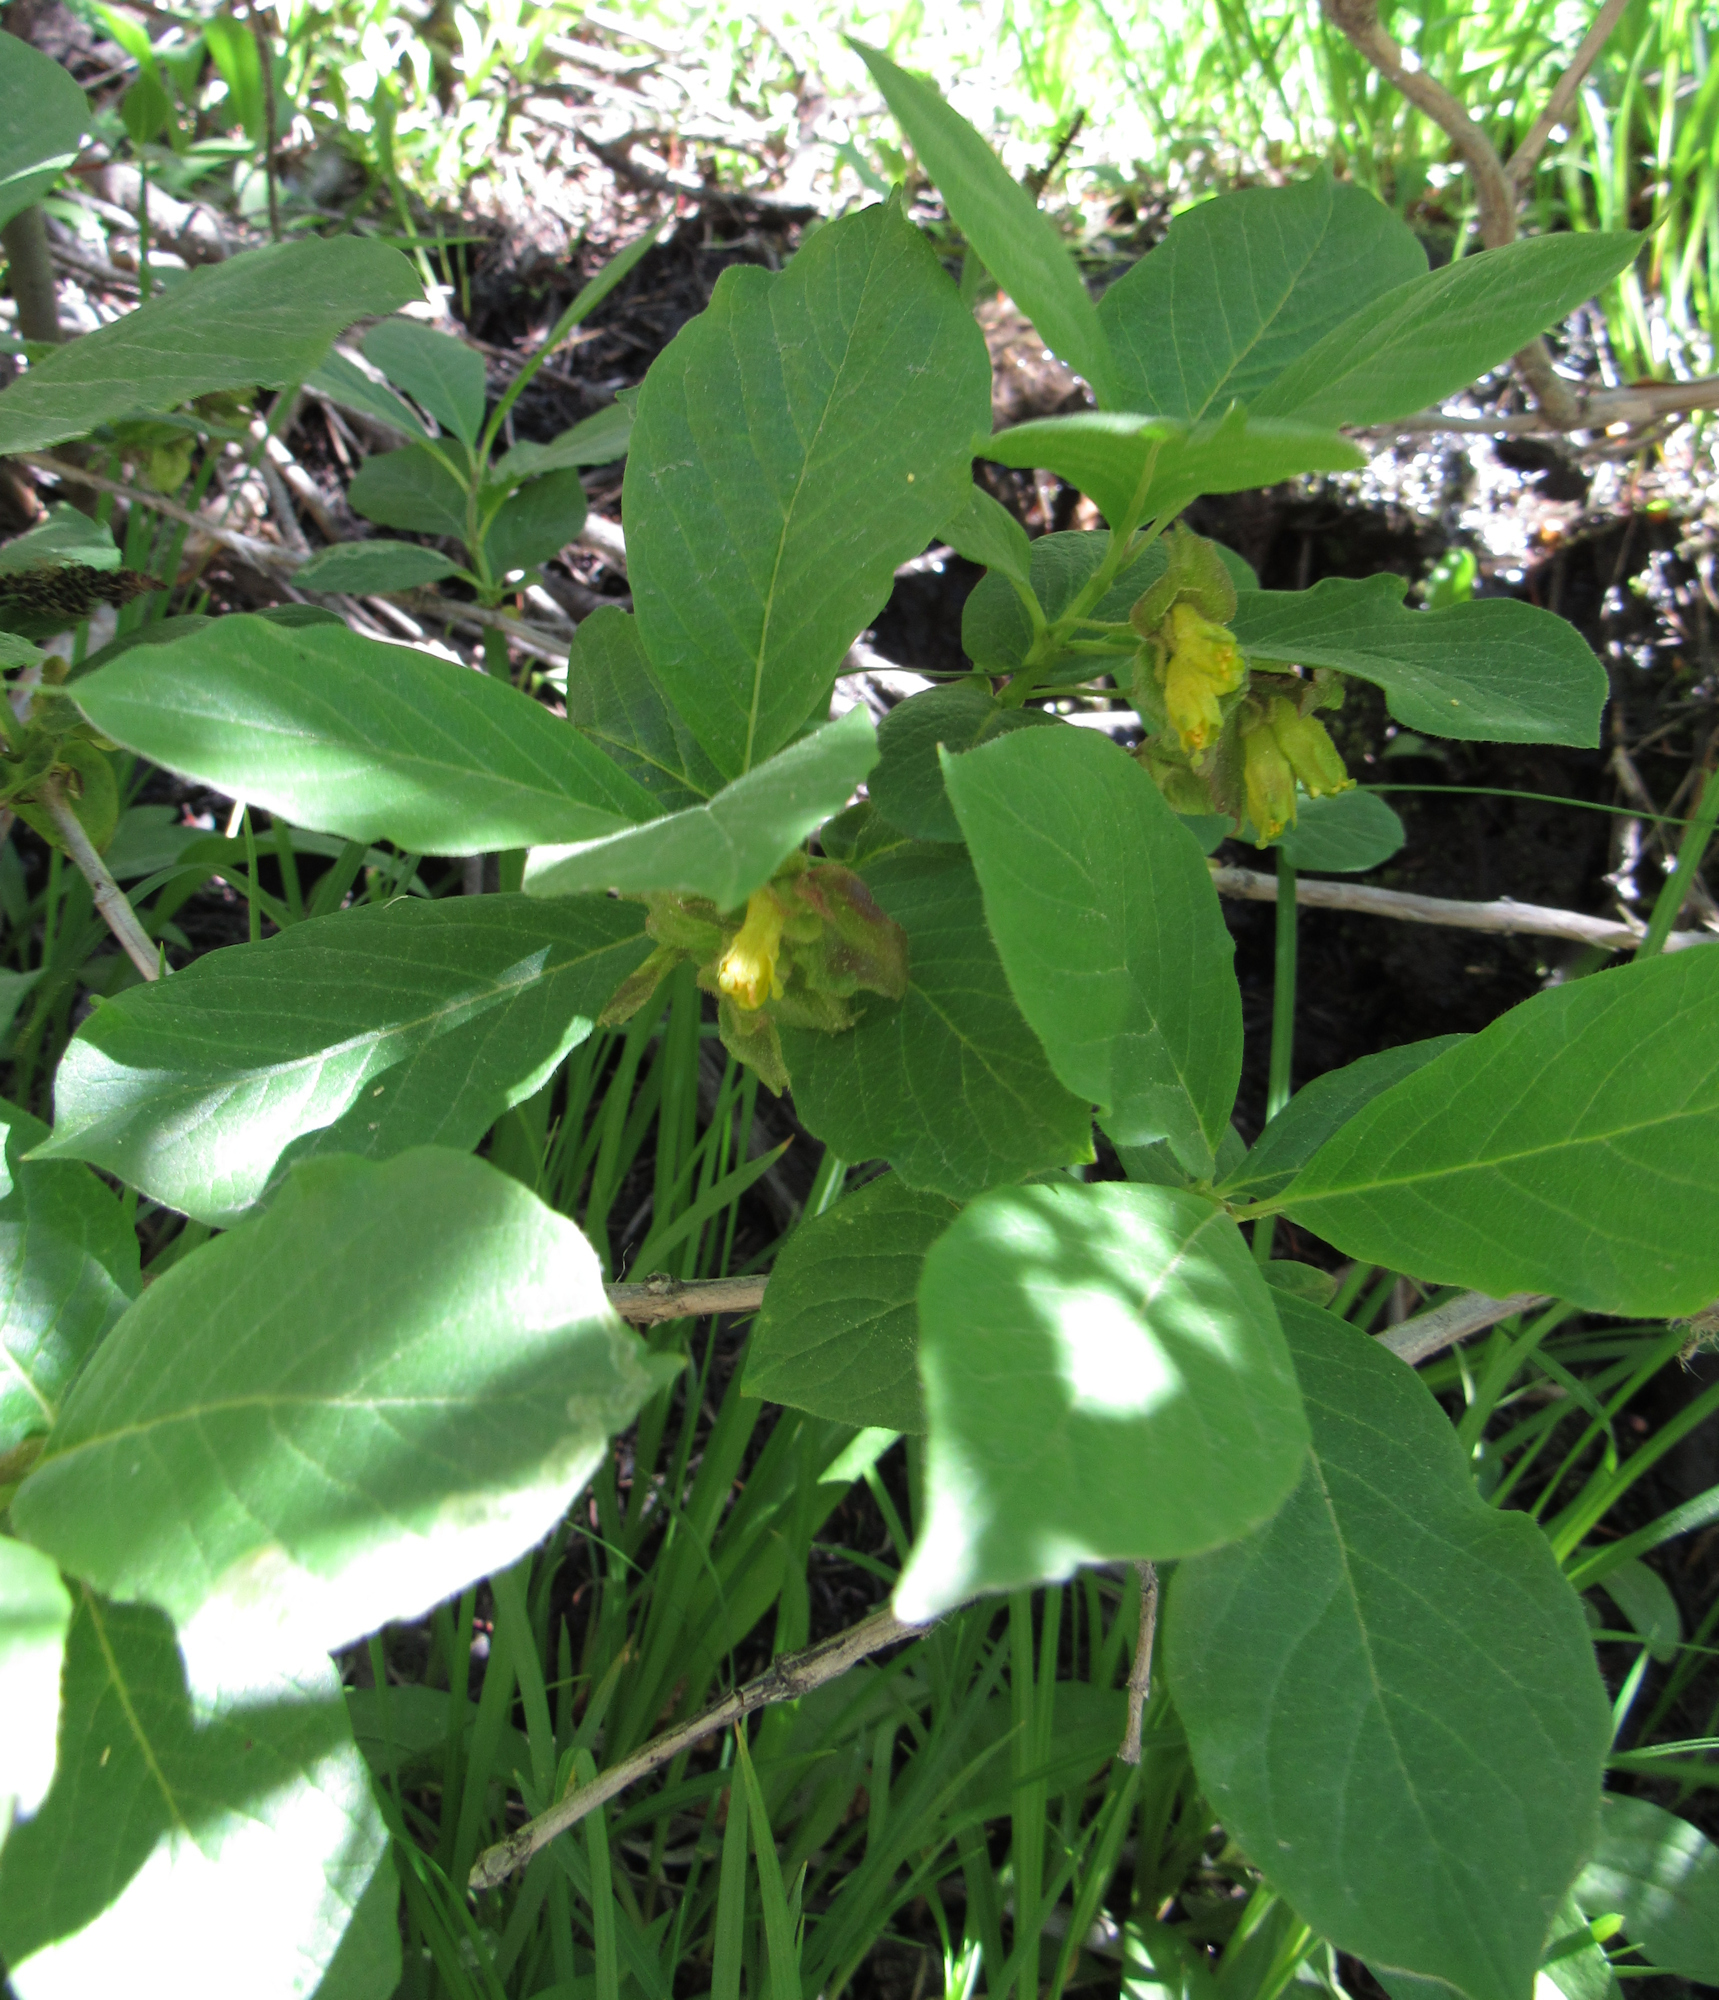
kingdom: Plantae
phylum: Tracheophyta
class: Magnoliopsida
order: Dipsacales
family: Caprifoliaceae
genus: Lonicera
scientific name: Lonicera involucrata
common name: Californian honeysuckle
